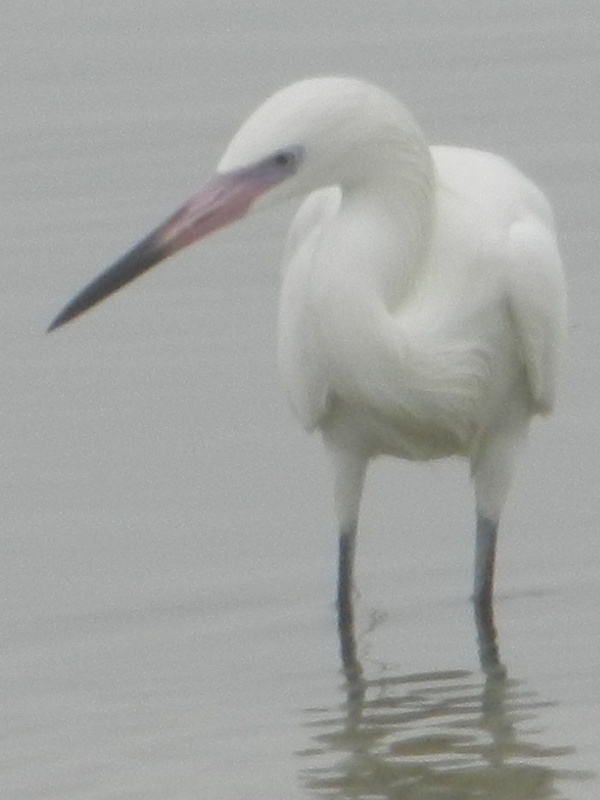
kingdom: Animalia
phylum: Chordata
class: Aves
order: Pelecaniformes
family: Ardeidae
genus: Egretta
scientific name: Egretta rufescens
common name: Reddish egret
